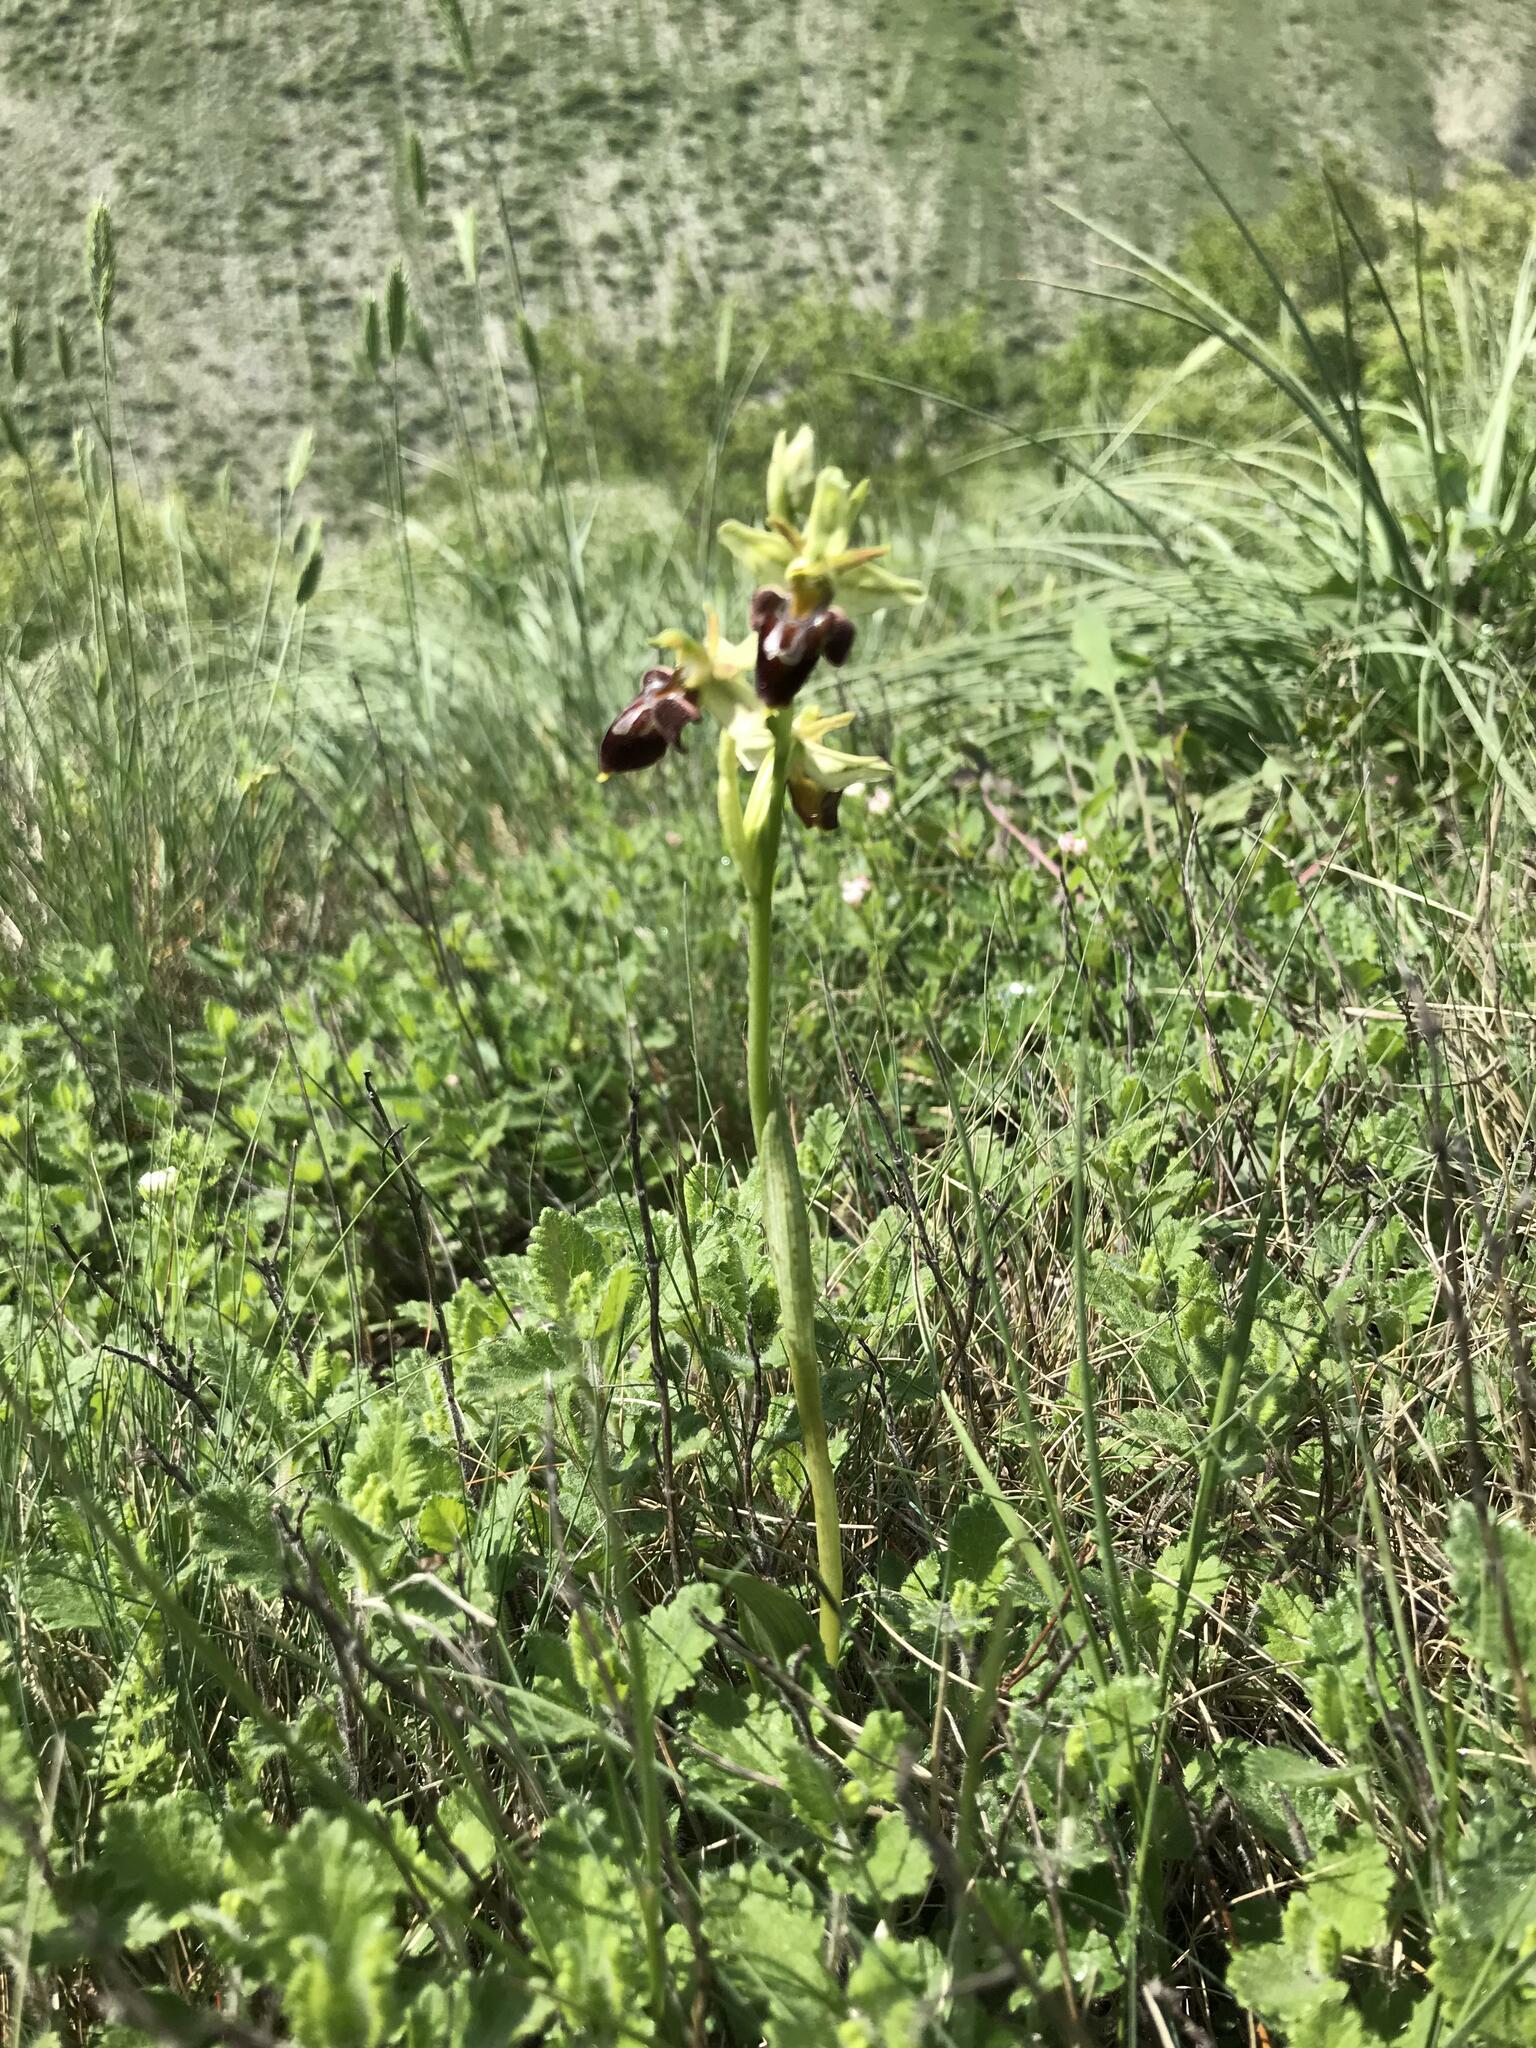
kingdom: Plantae
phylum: Tracheophyta
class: Liliopsida
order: Asparagales
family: Orchidaceae
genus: Ophrys
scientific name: Ophrys sphegodes
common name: Early spider-orchid
